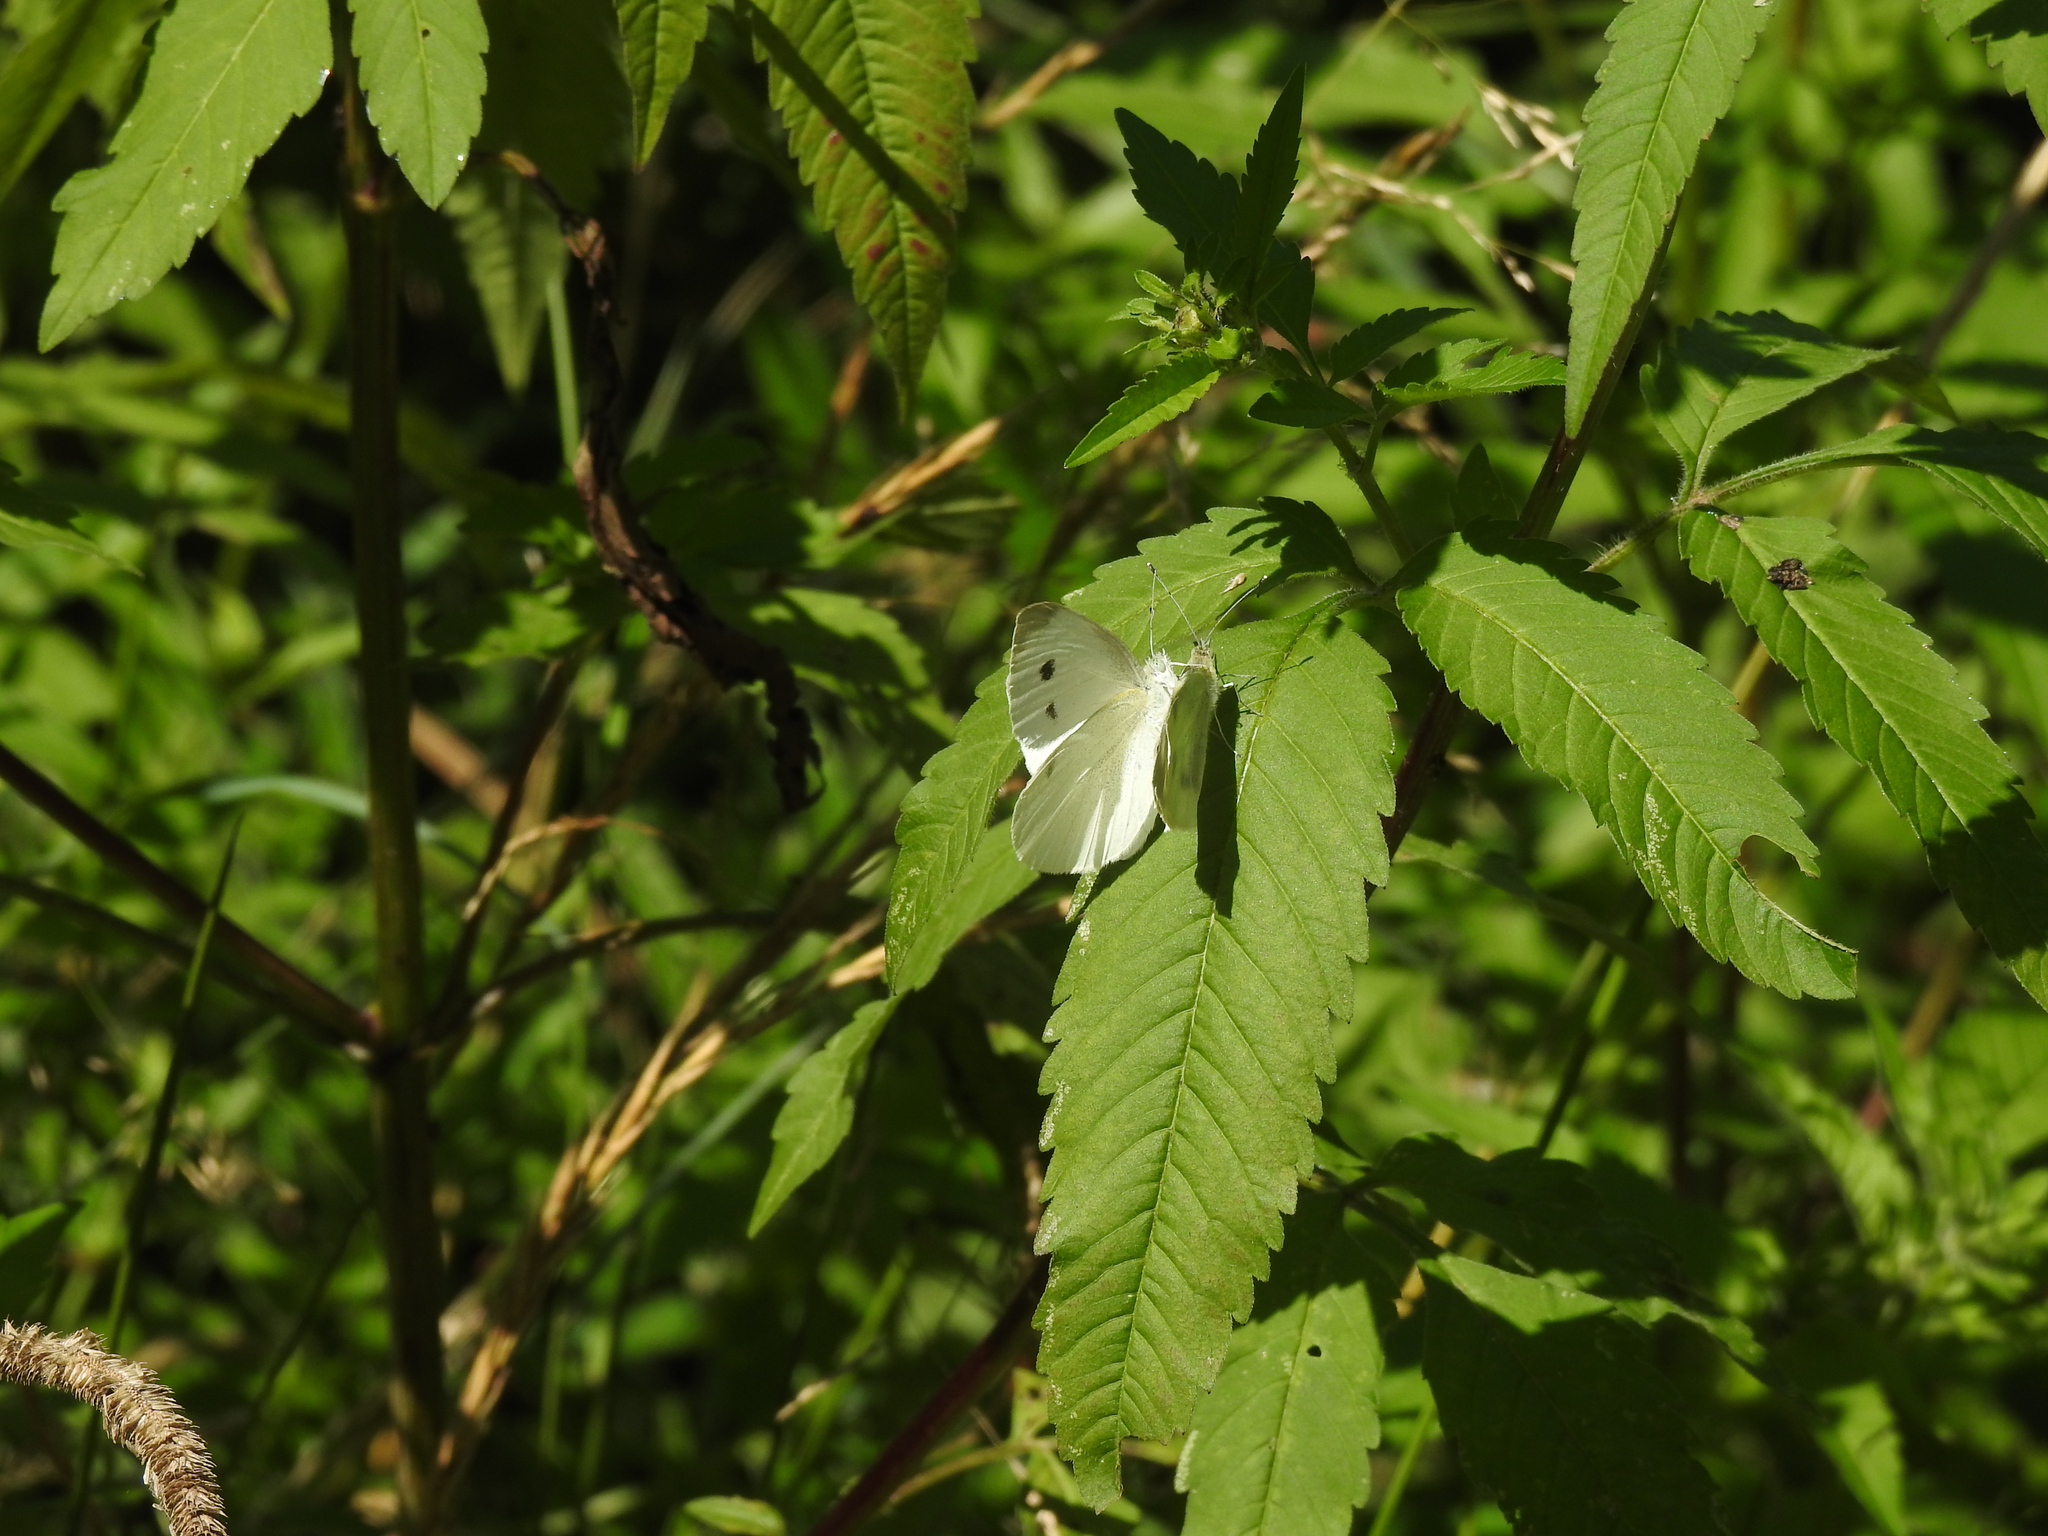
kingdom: Animalia
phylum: Arthropoda
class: Insecta
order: Lepidoptera
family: Pieridae
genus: Pieris
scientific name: Pieris rapae
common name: Small white
